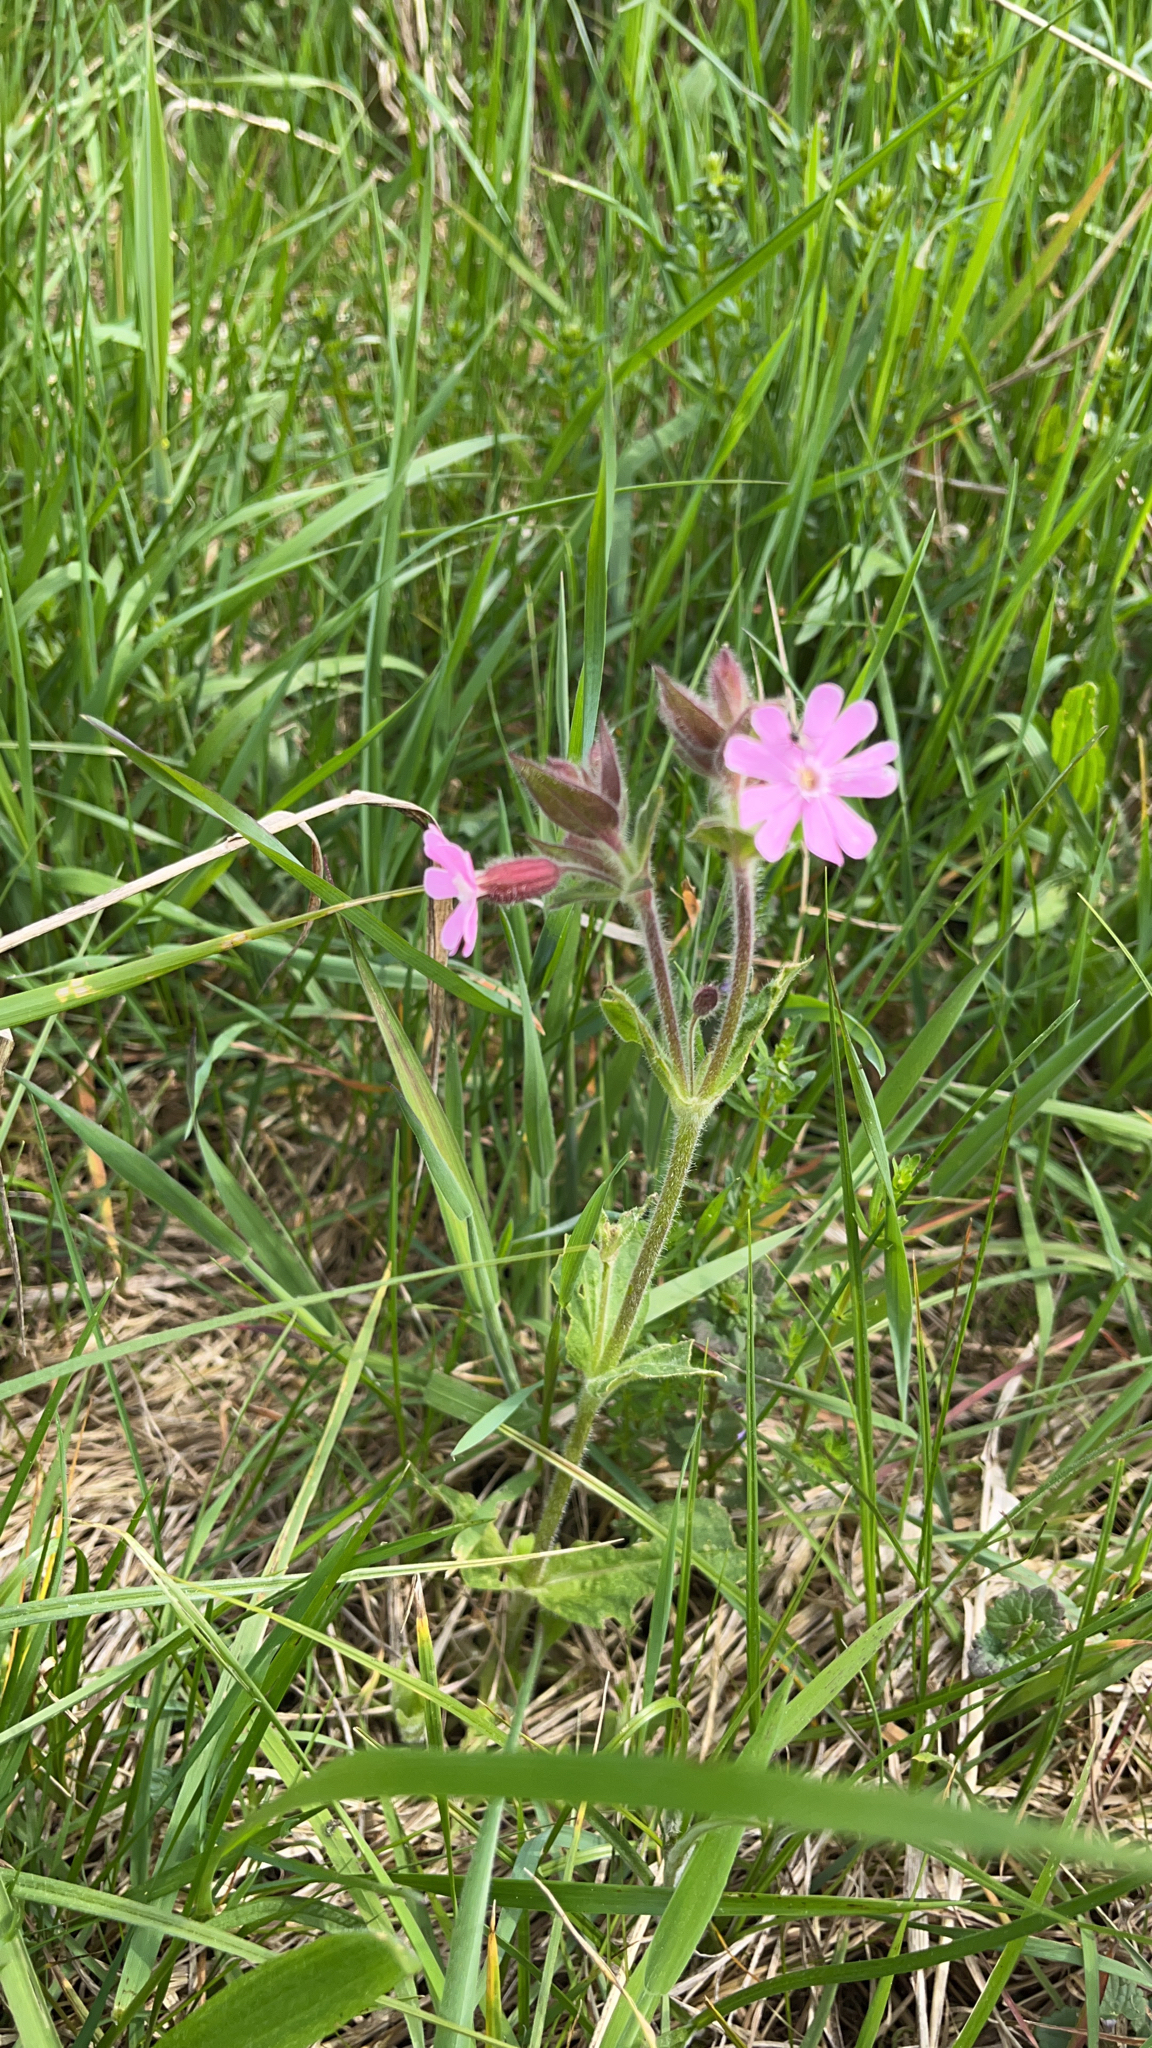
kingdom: Plantae
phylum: Tracheophyta
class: Magnoliopsida
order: Caryophyllales
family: Caryophyllaceae
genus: Silene
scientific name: Silene dioica
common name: Red campion
